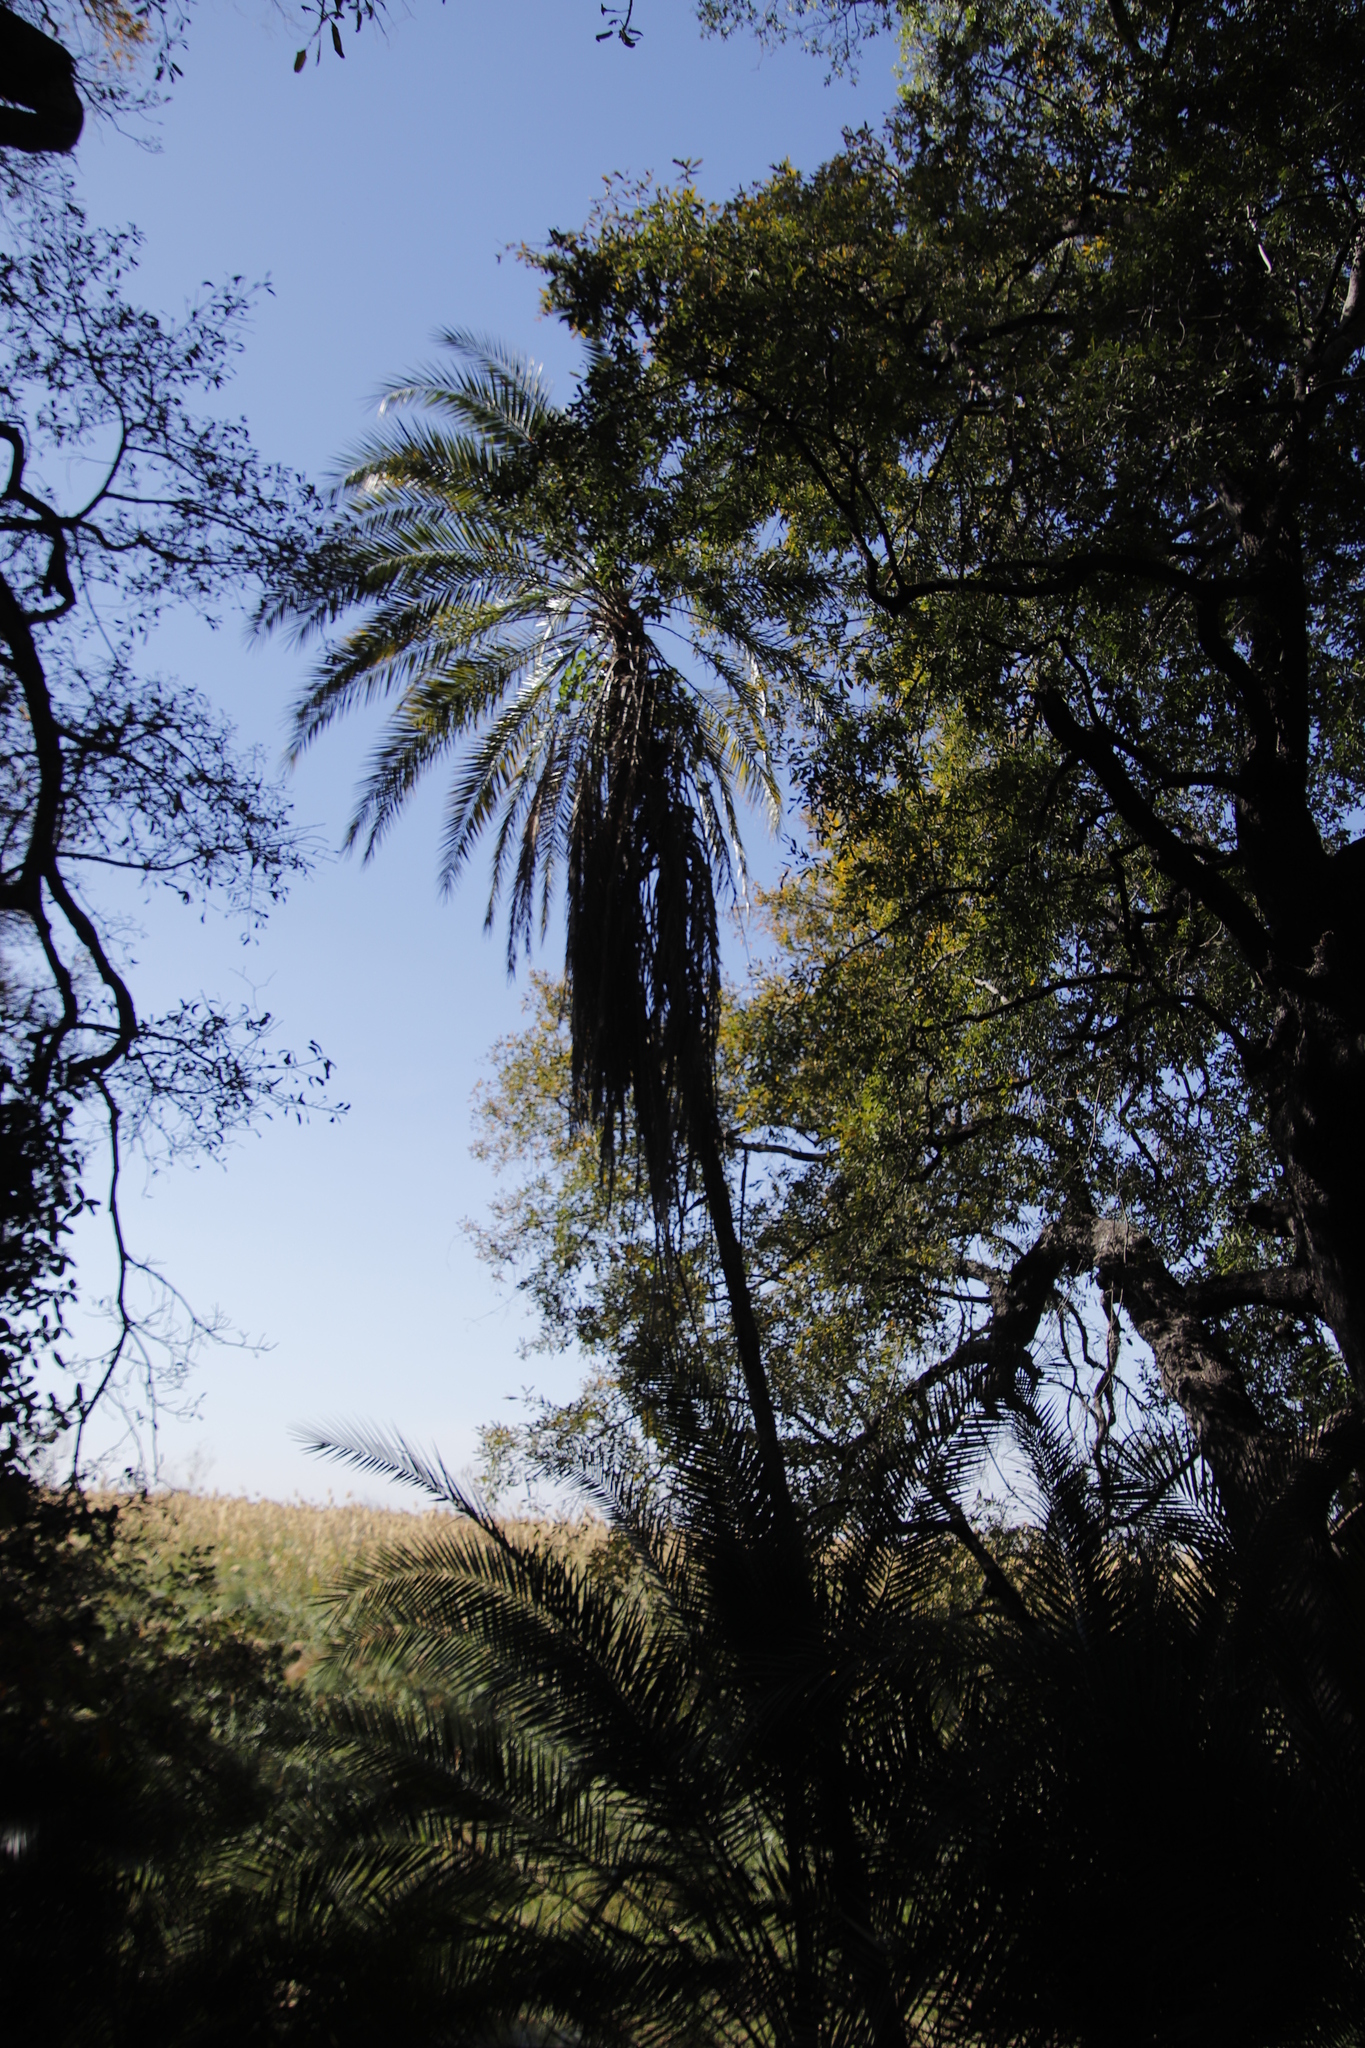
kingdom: Plantae
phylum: Tracheophyta
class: Liliopsida
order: Arecales
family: Arecaceae
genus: Phoenix
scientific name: Phoenix reclinata
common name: Senegal date palm
